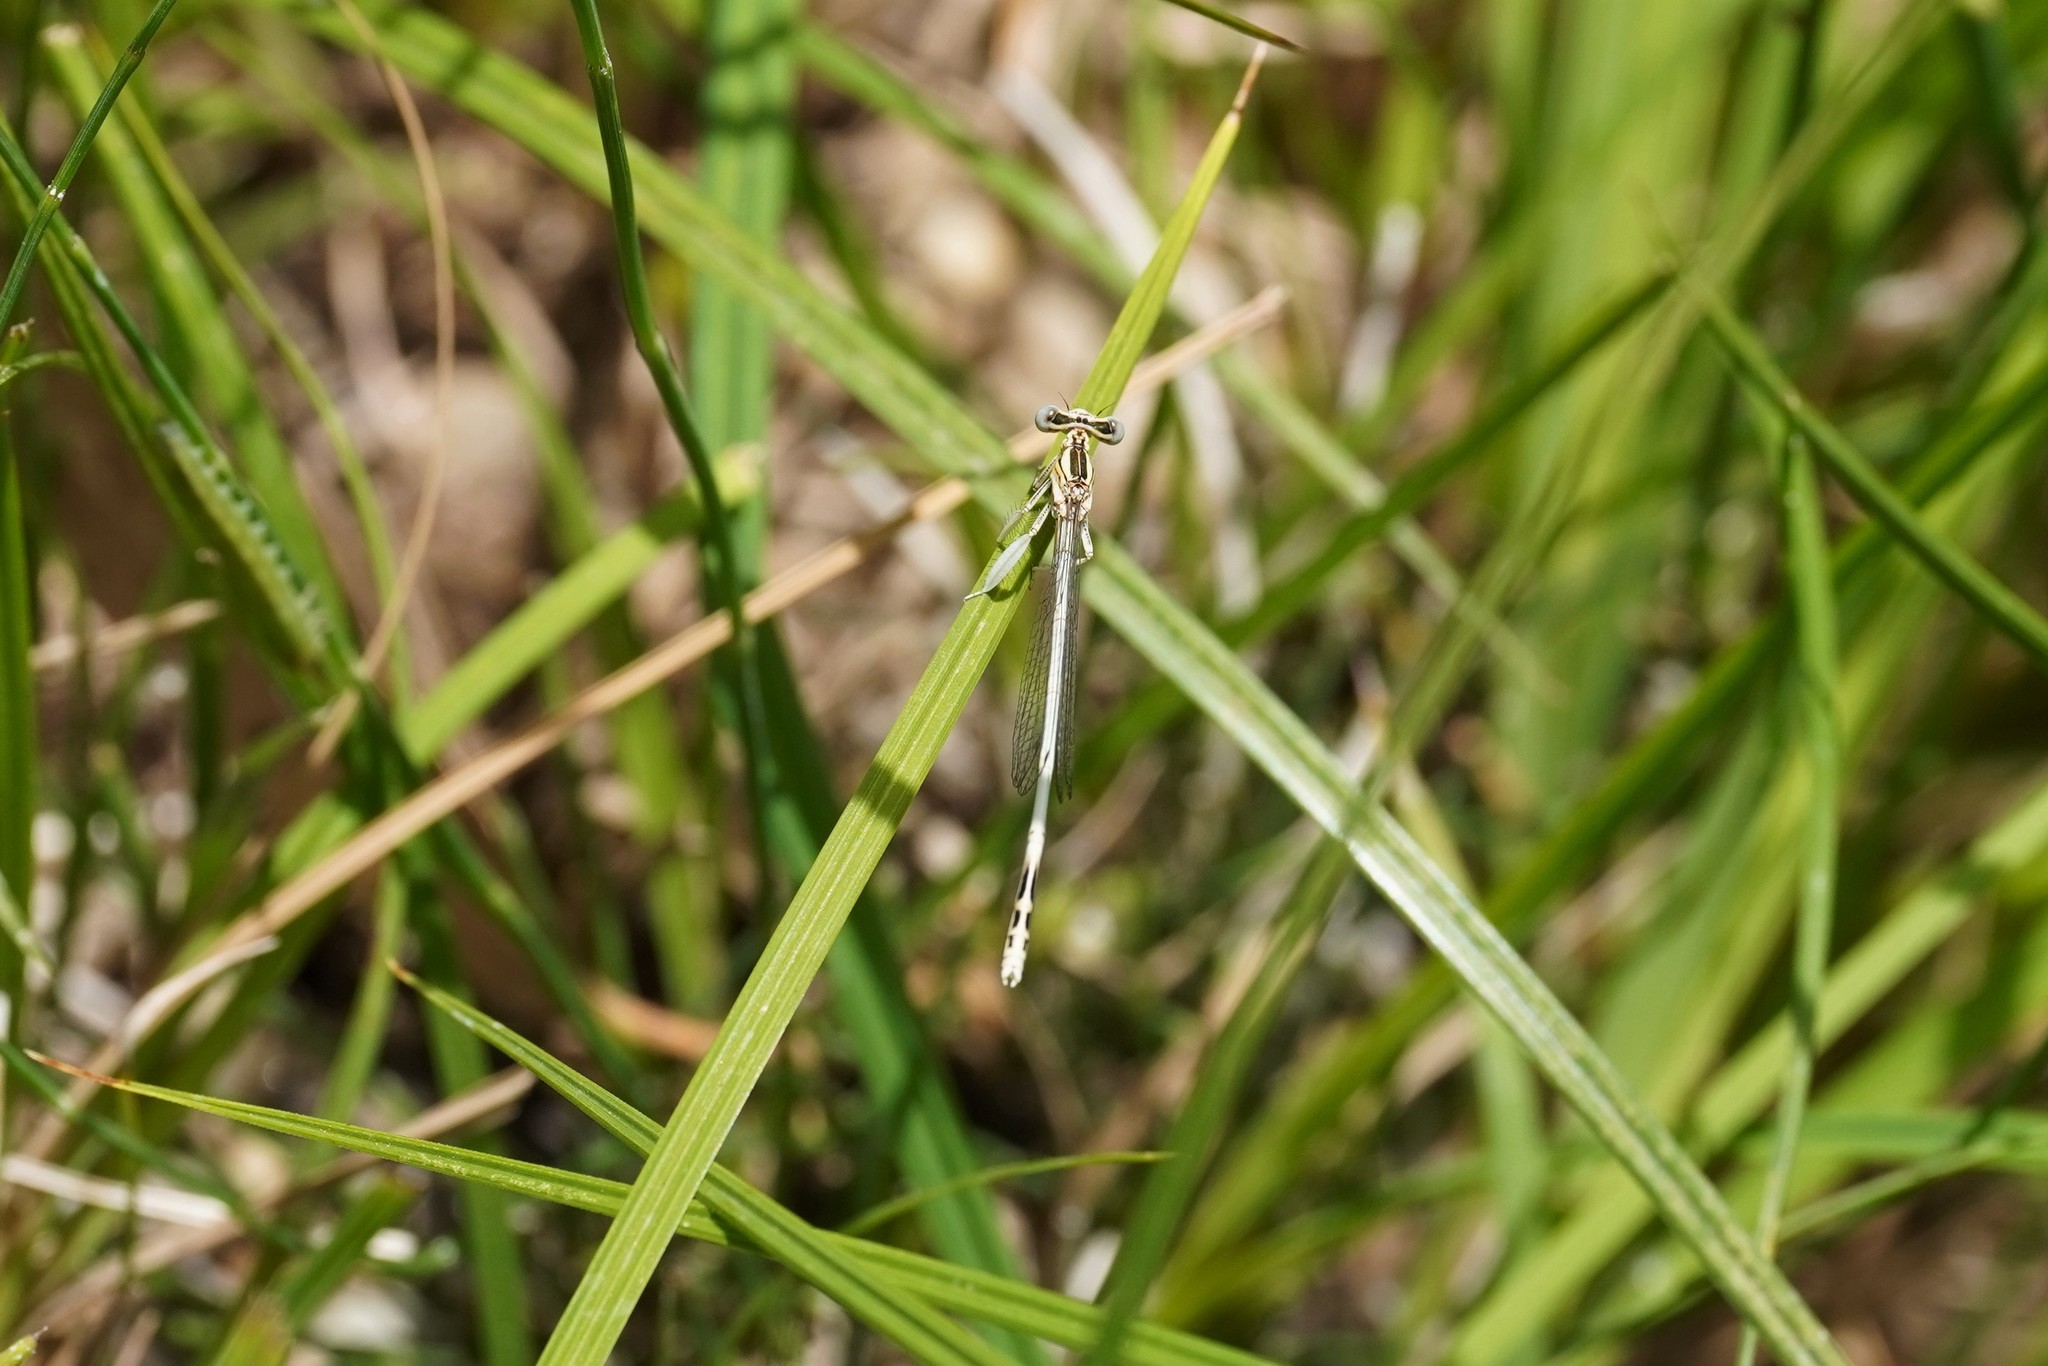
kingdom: Animalia
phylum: Arthropoda
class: Insecta
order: Odonata
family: Platycnemididae
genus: Platycnemis
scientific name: Platycnemis latipes
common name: White featherleg
